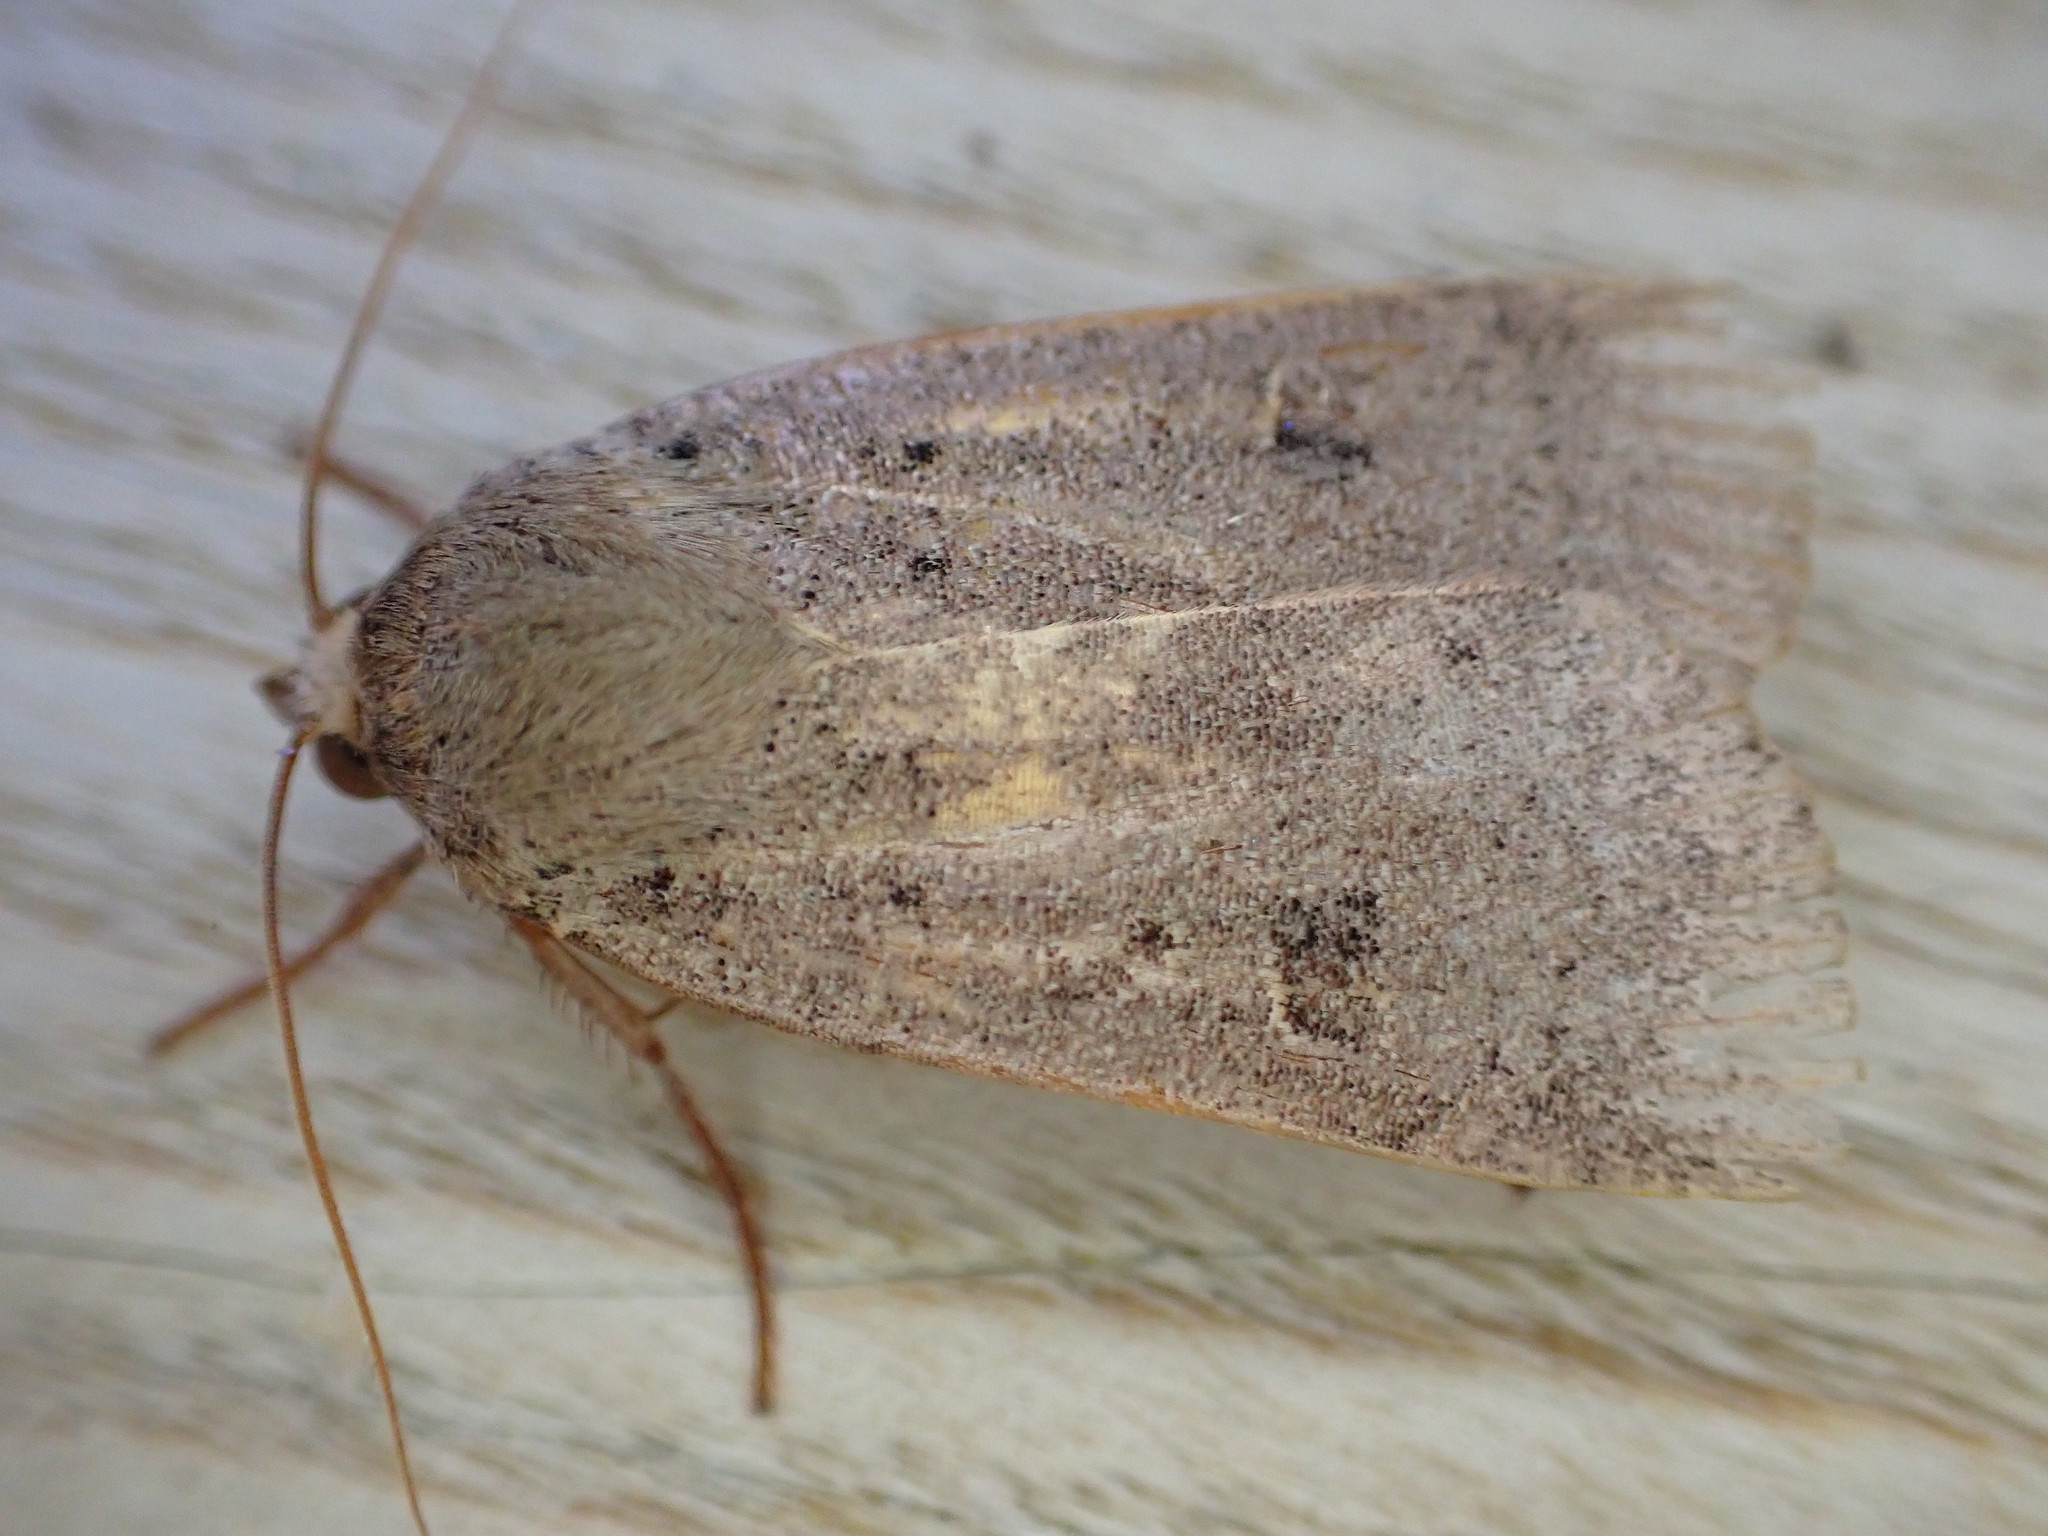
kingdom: Animalia
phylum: Arthropoda
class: Insecta
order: Lepidoptera
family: Noctuidae
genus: Noctua
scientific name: Noctua comes
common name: Lesser yellow underwing
